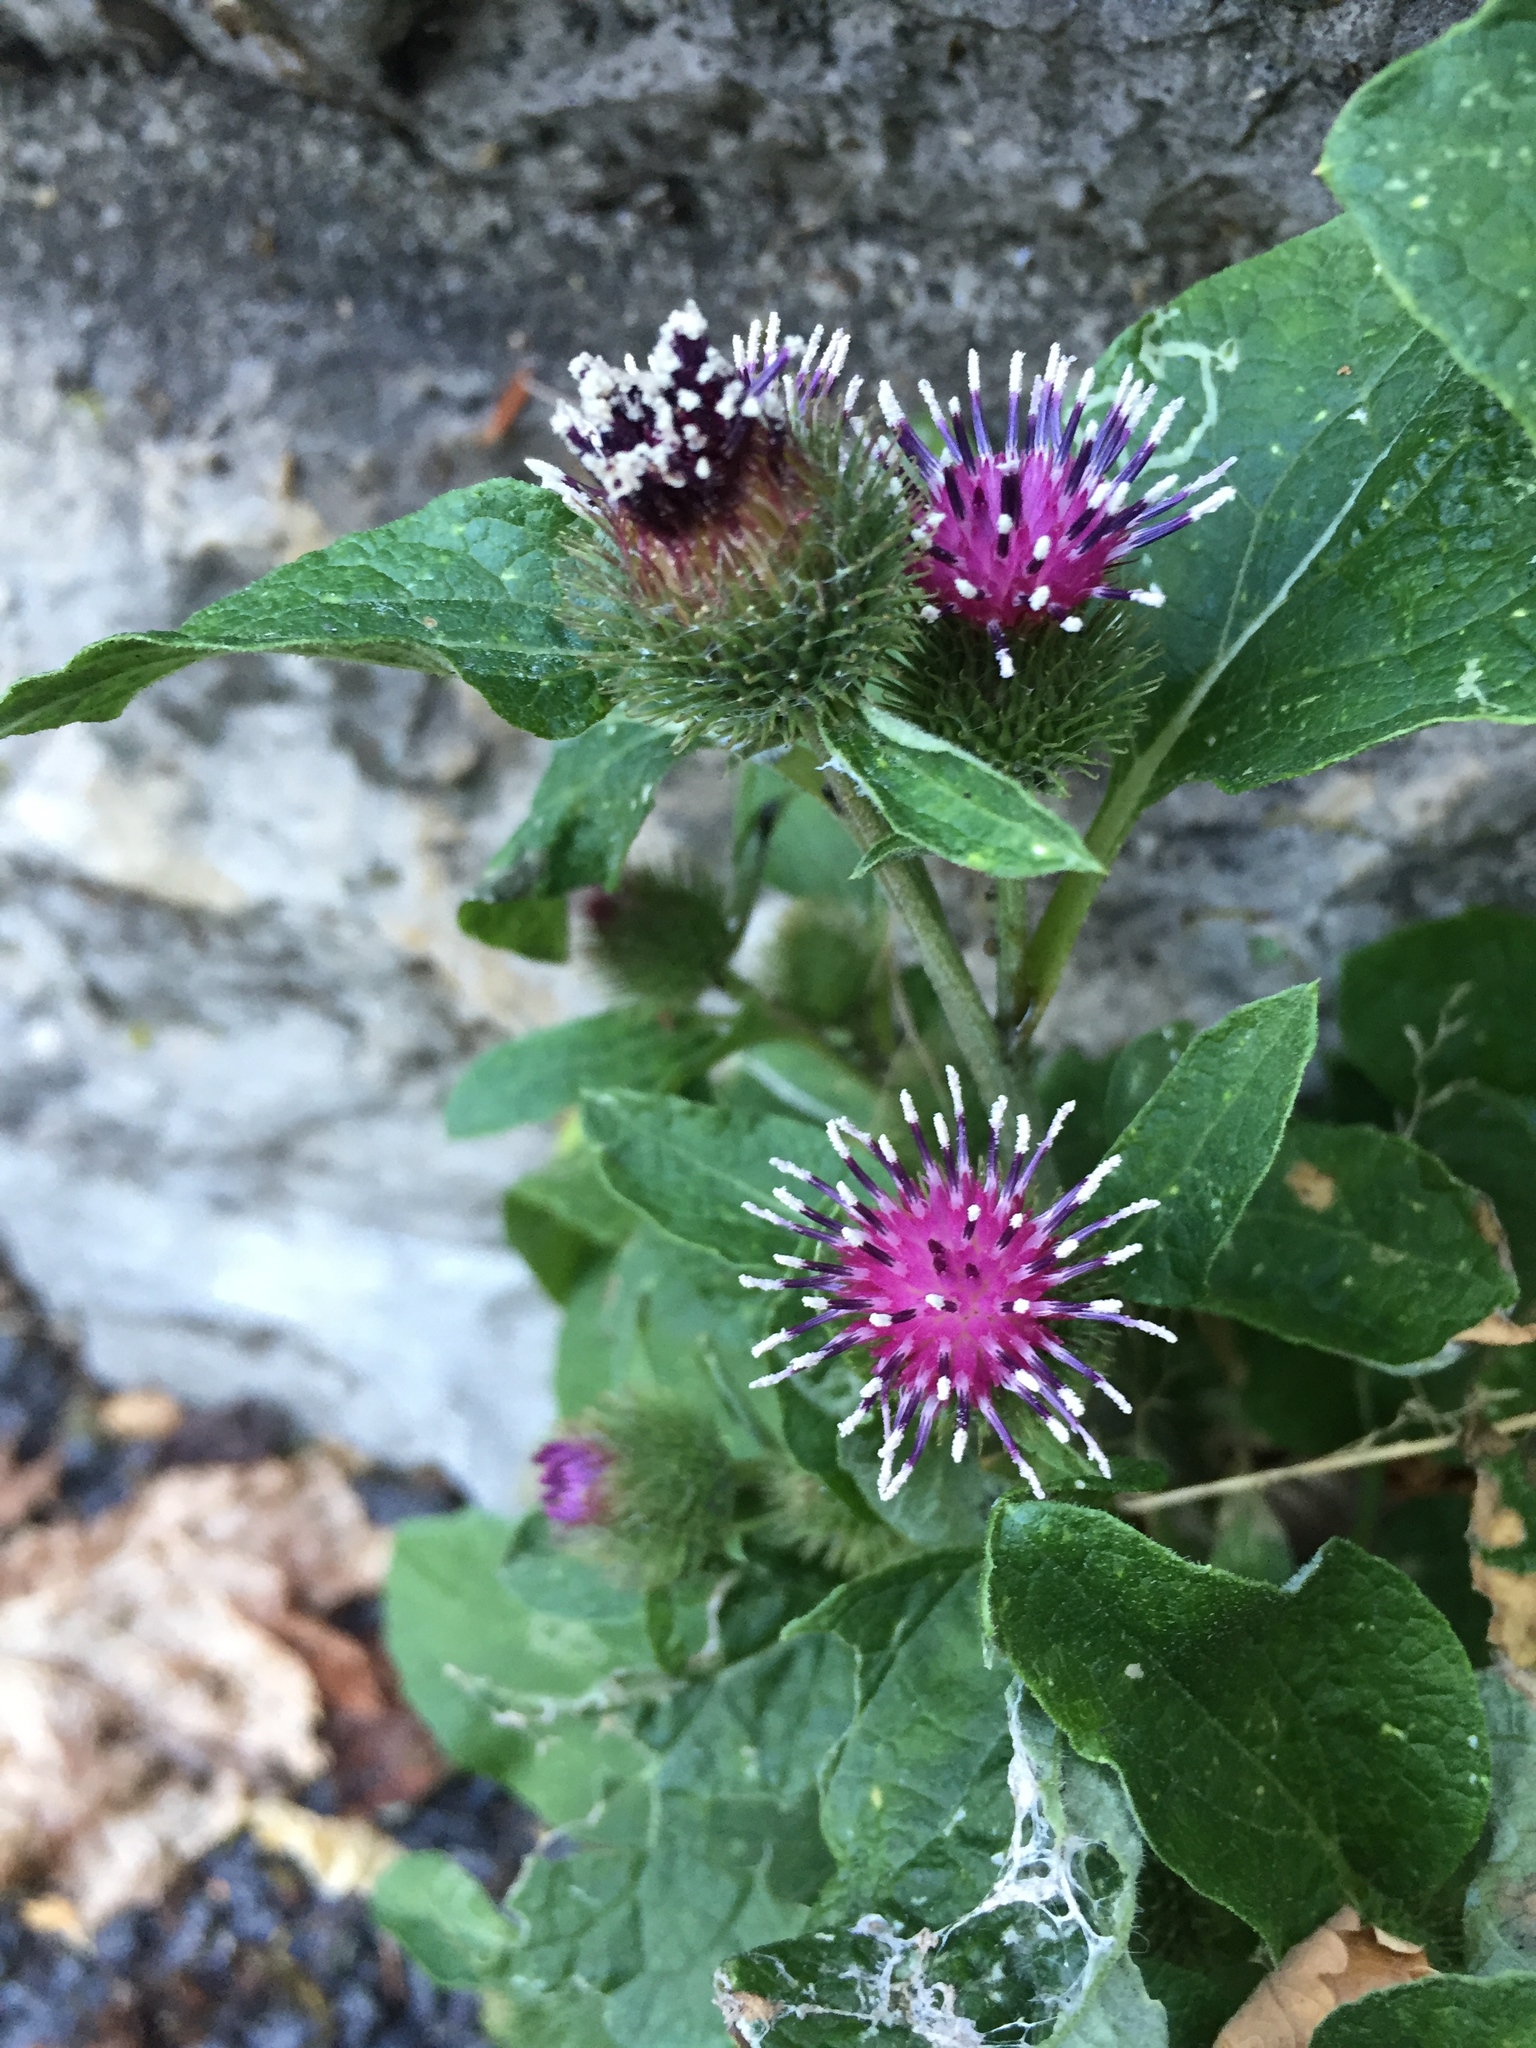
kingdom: Plantae
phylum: Tracheophyta
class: Magnoliopsida
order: Asterales
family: Asteraceae
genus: Arctium
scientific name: Arctium minus
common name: Lesser burdock
